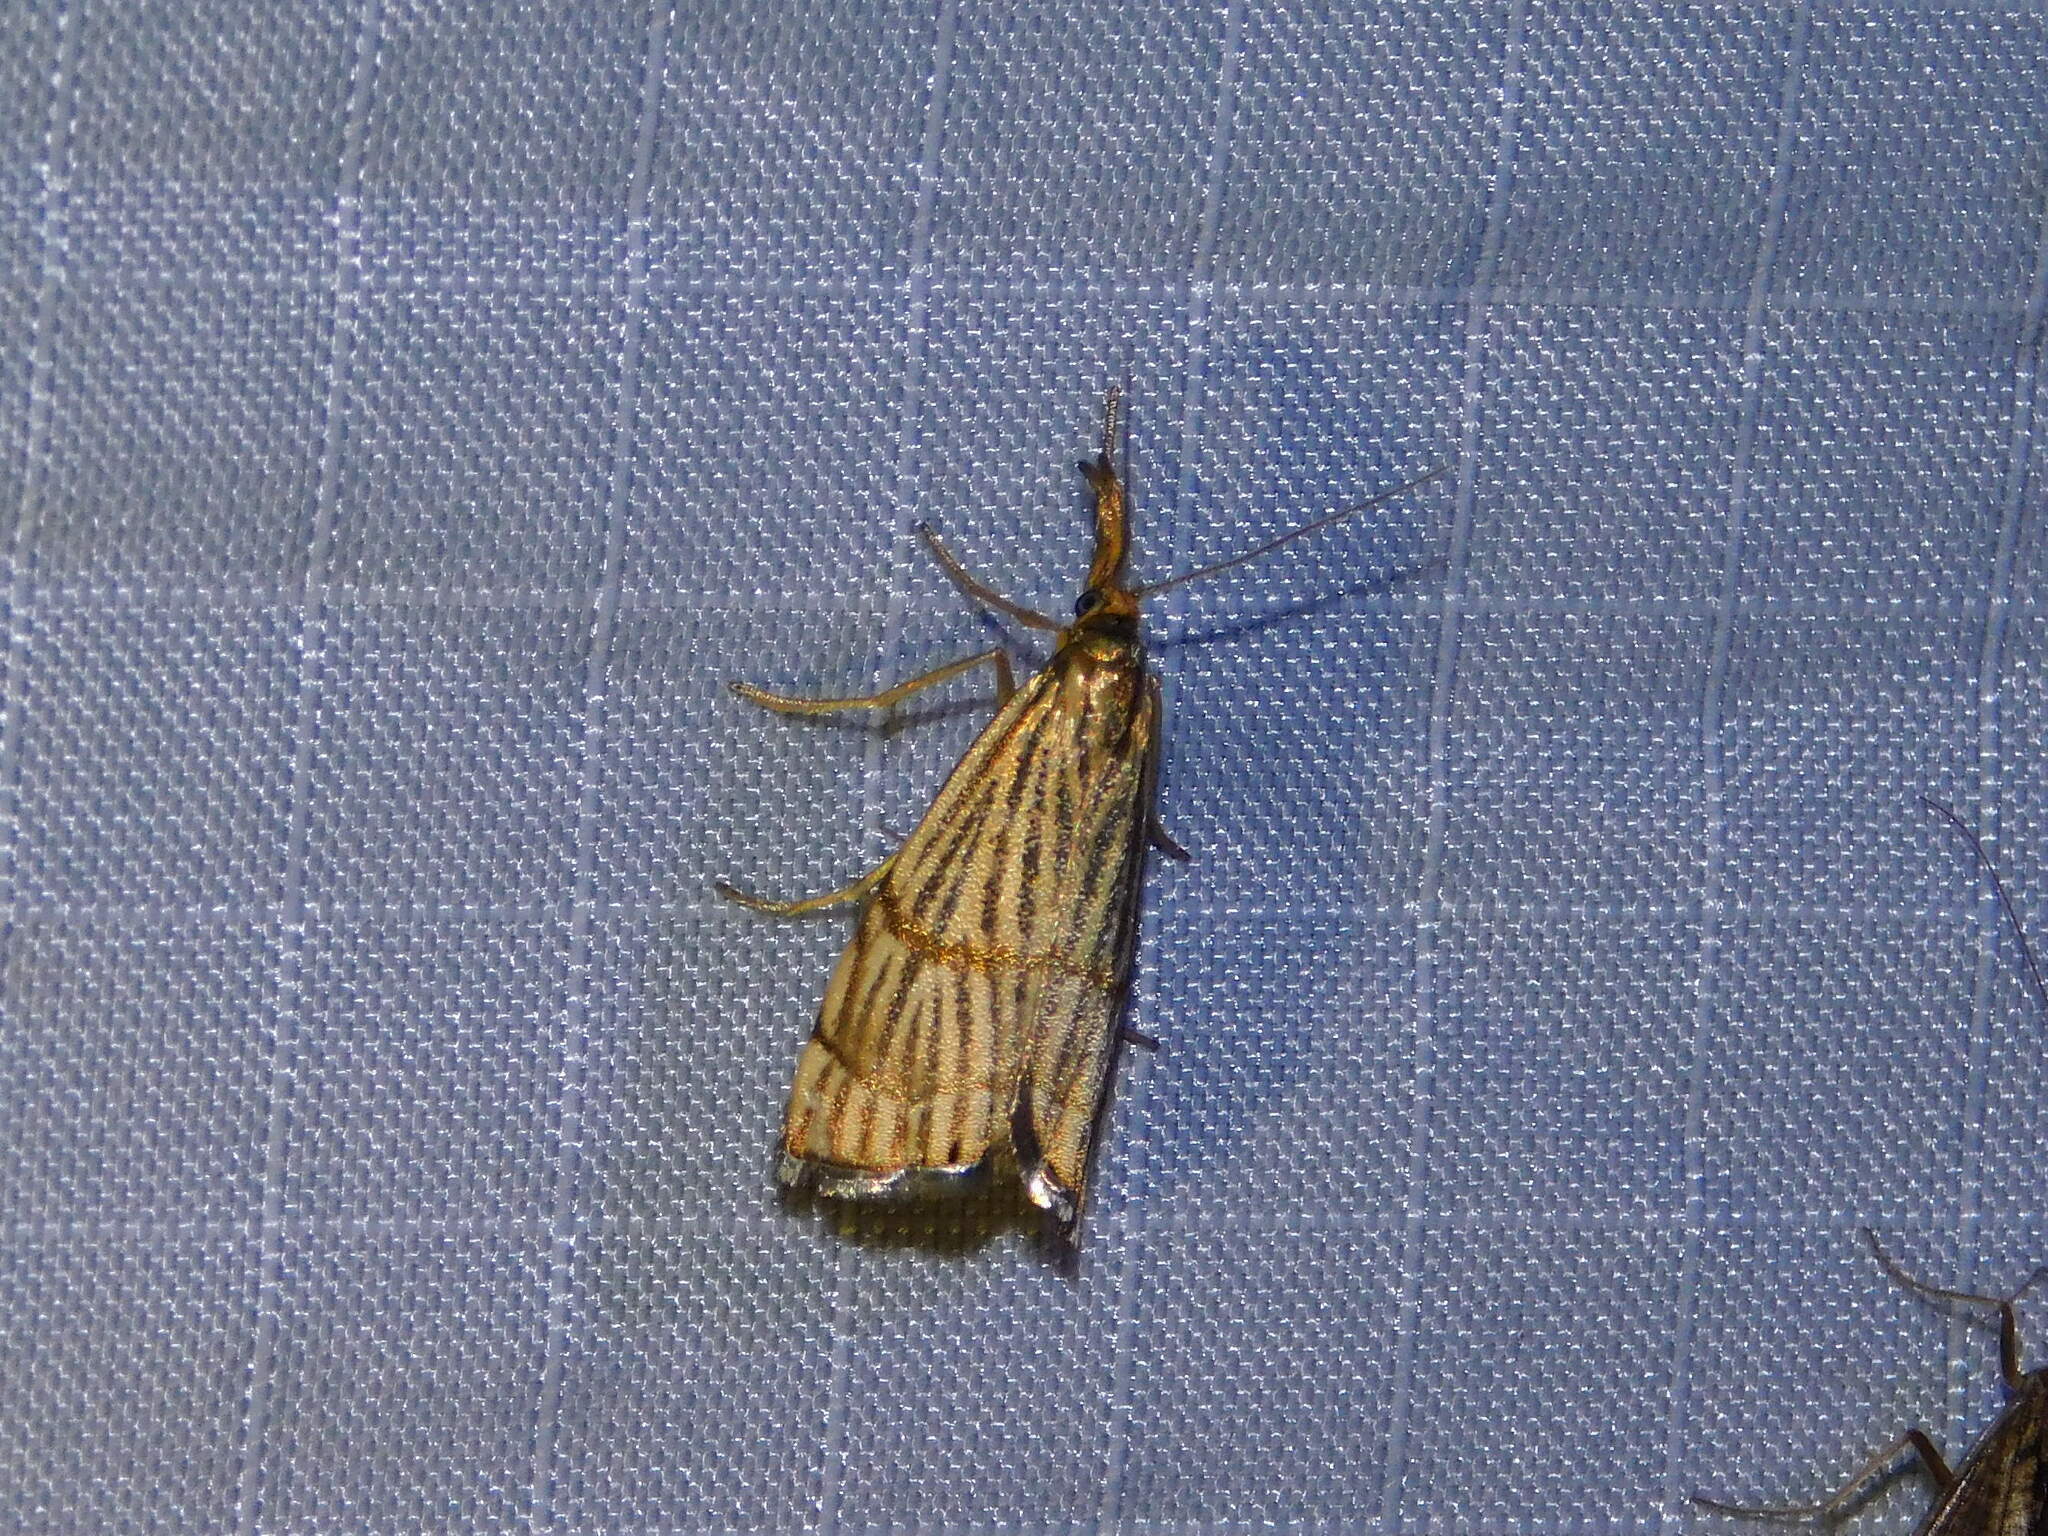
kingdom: Animalia
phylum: Arthropoda
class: Insecta
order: Lepidoptera
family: Crambidae
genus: Chrysocrambus
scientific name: Chrysocrambus linetella
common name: Orange-bar grass-veneer
